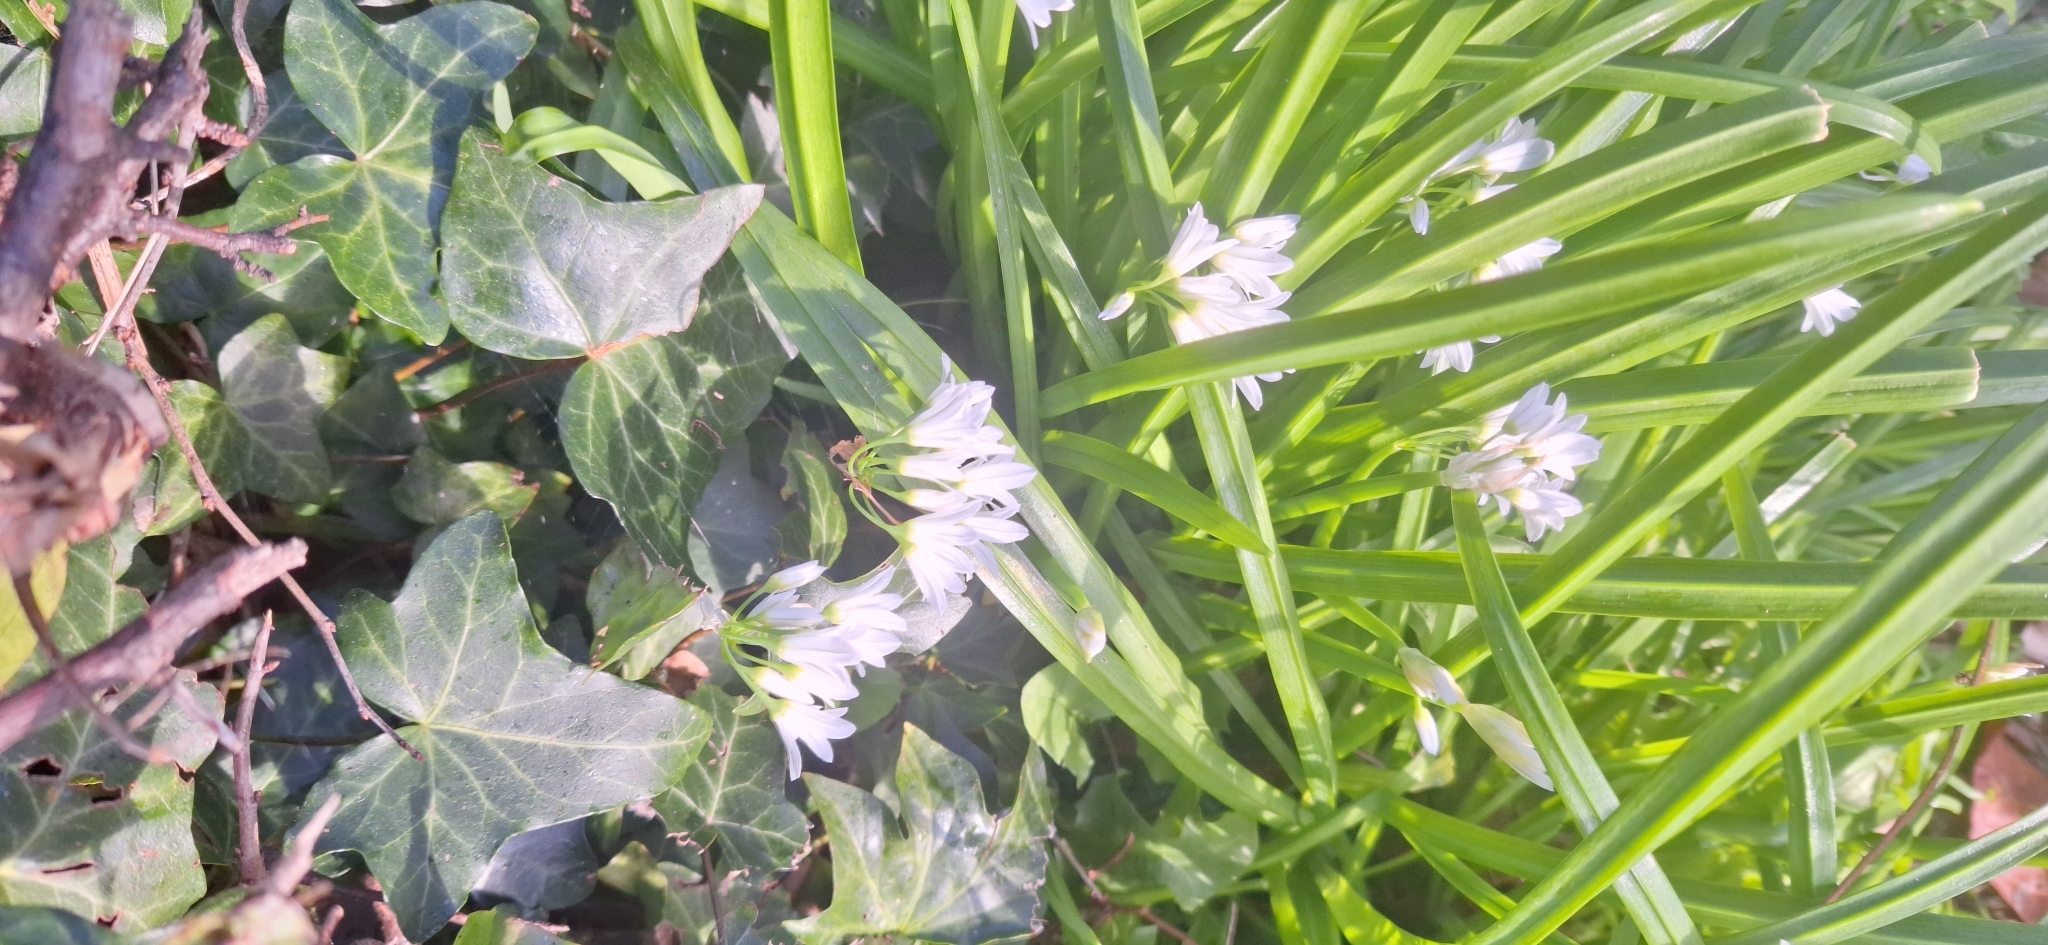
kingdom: Plantae
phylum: Tracheophyta
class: Liliopsida
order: Asparagales
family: Amaryllidaceae
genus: Allium
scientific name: Allium triquetrum
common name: Three-cornered garlic
